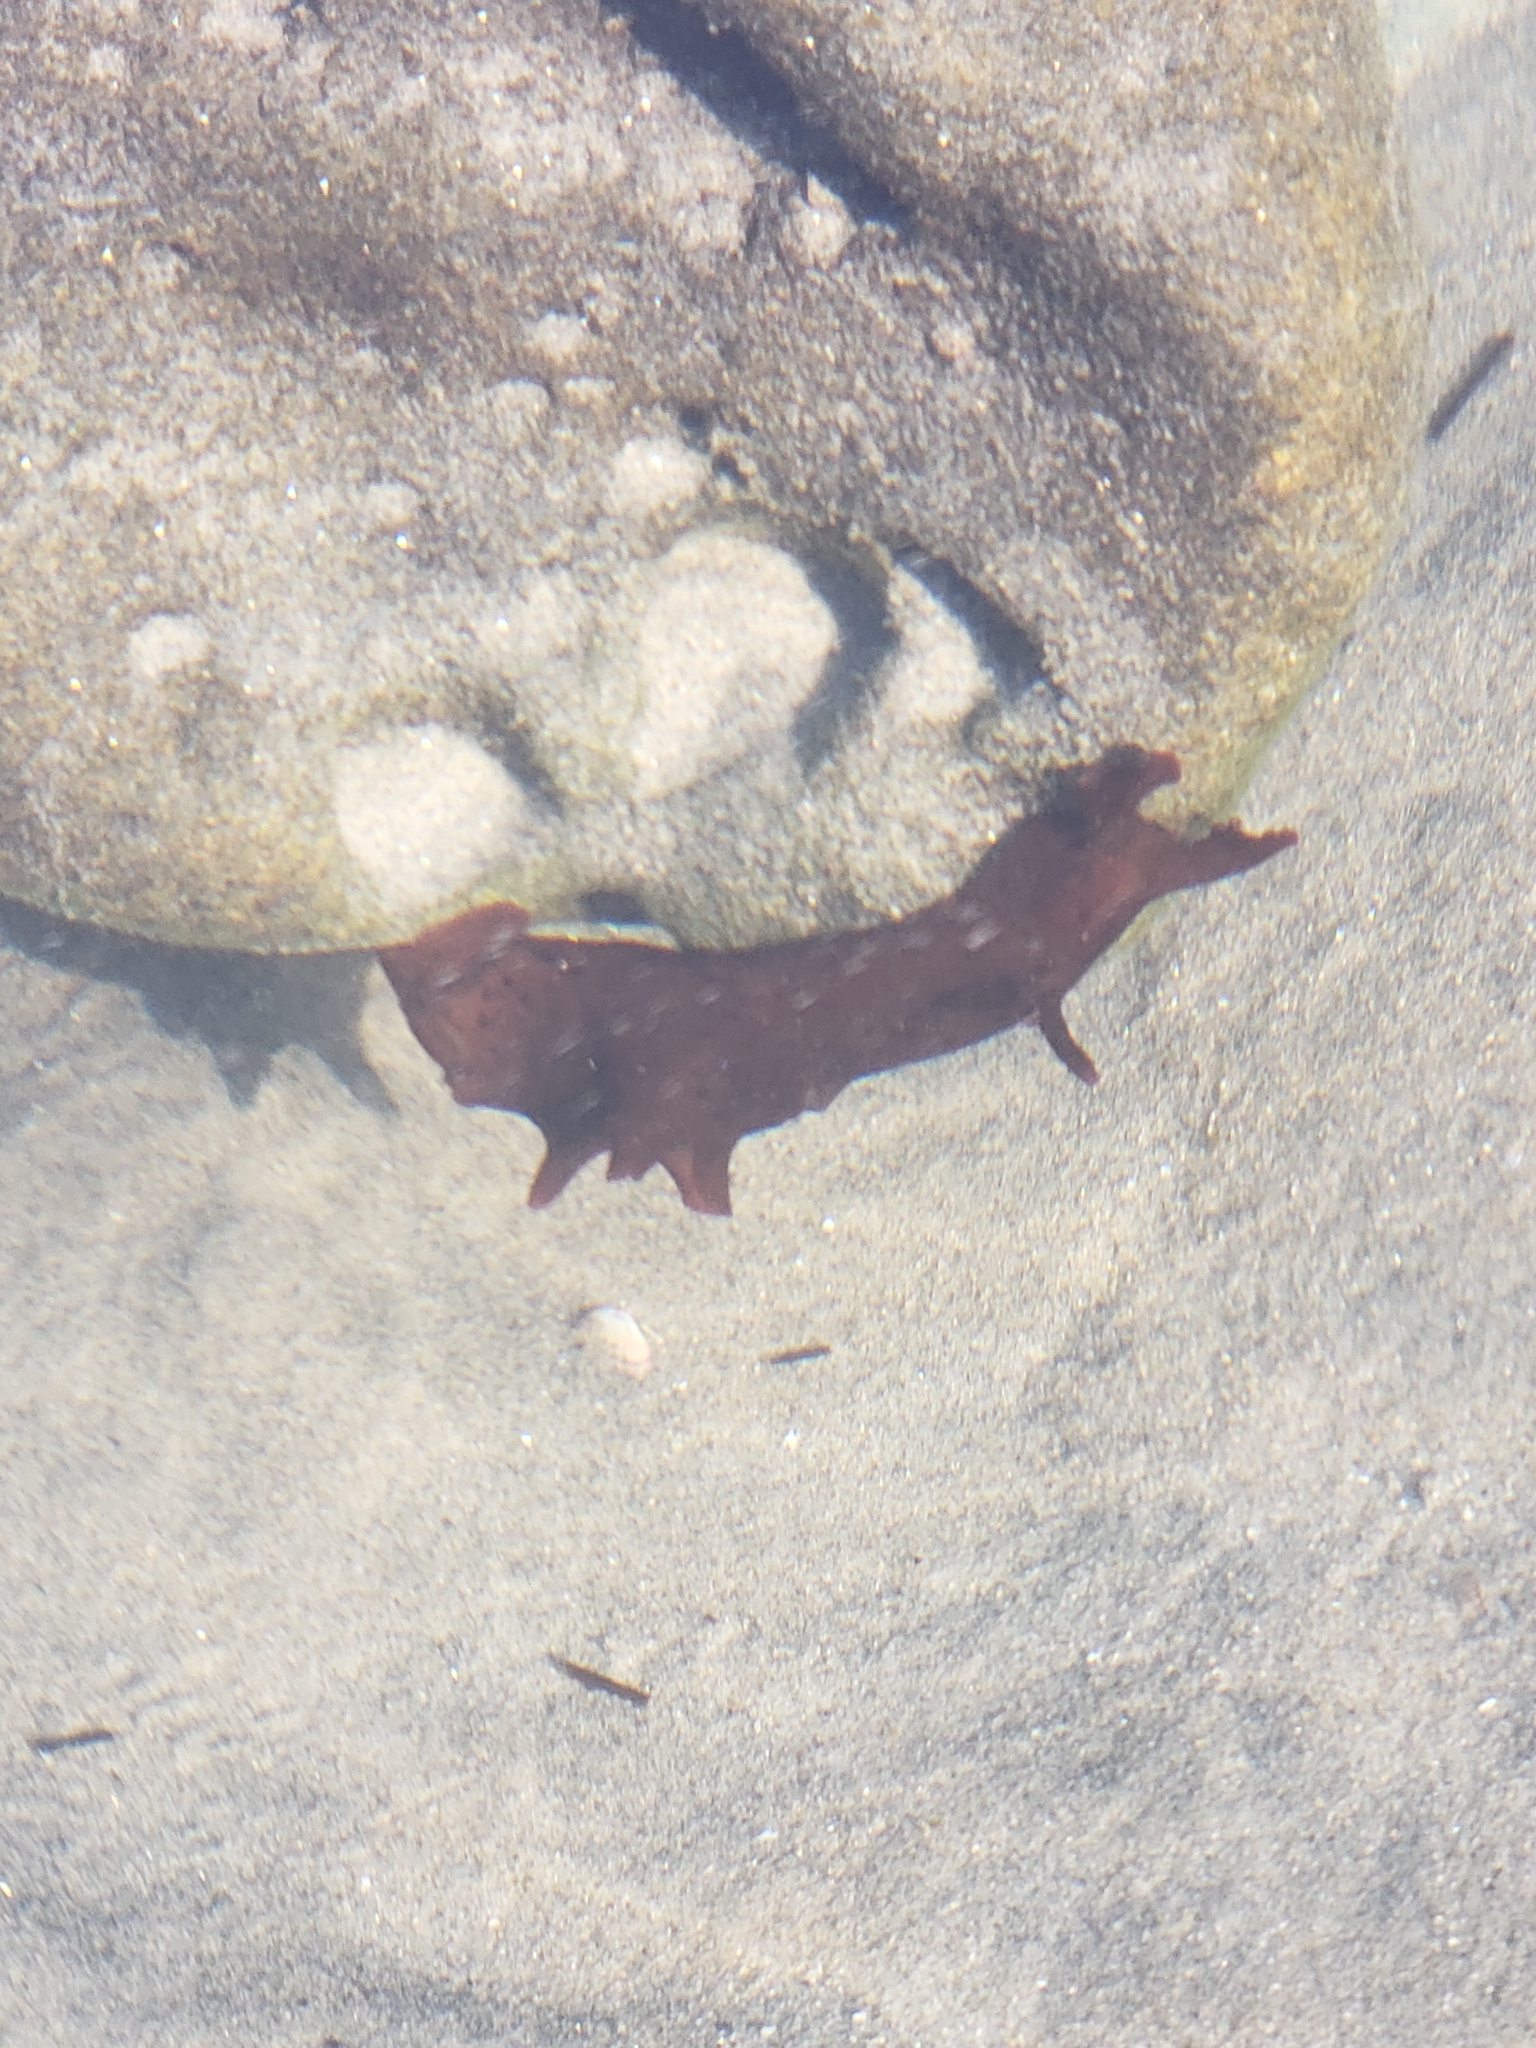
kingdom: Animalia
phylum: Mollusca
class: Gastropoda
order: Aplysiida
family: Aplysiidae
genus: Aplysia
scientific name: Aplysia californica
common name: California seahare
